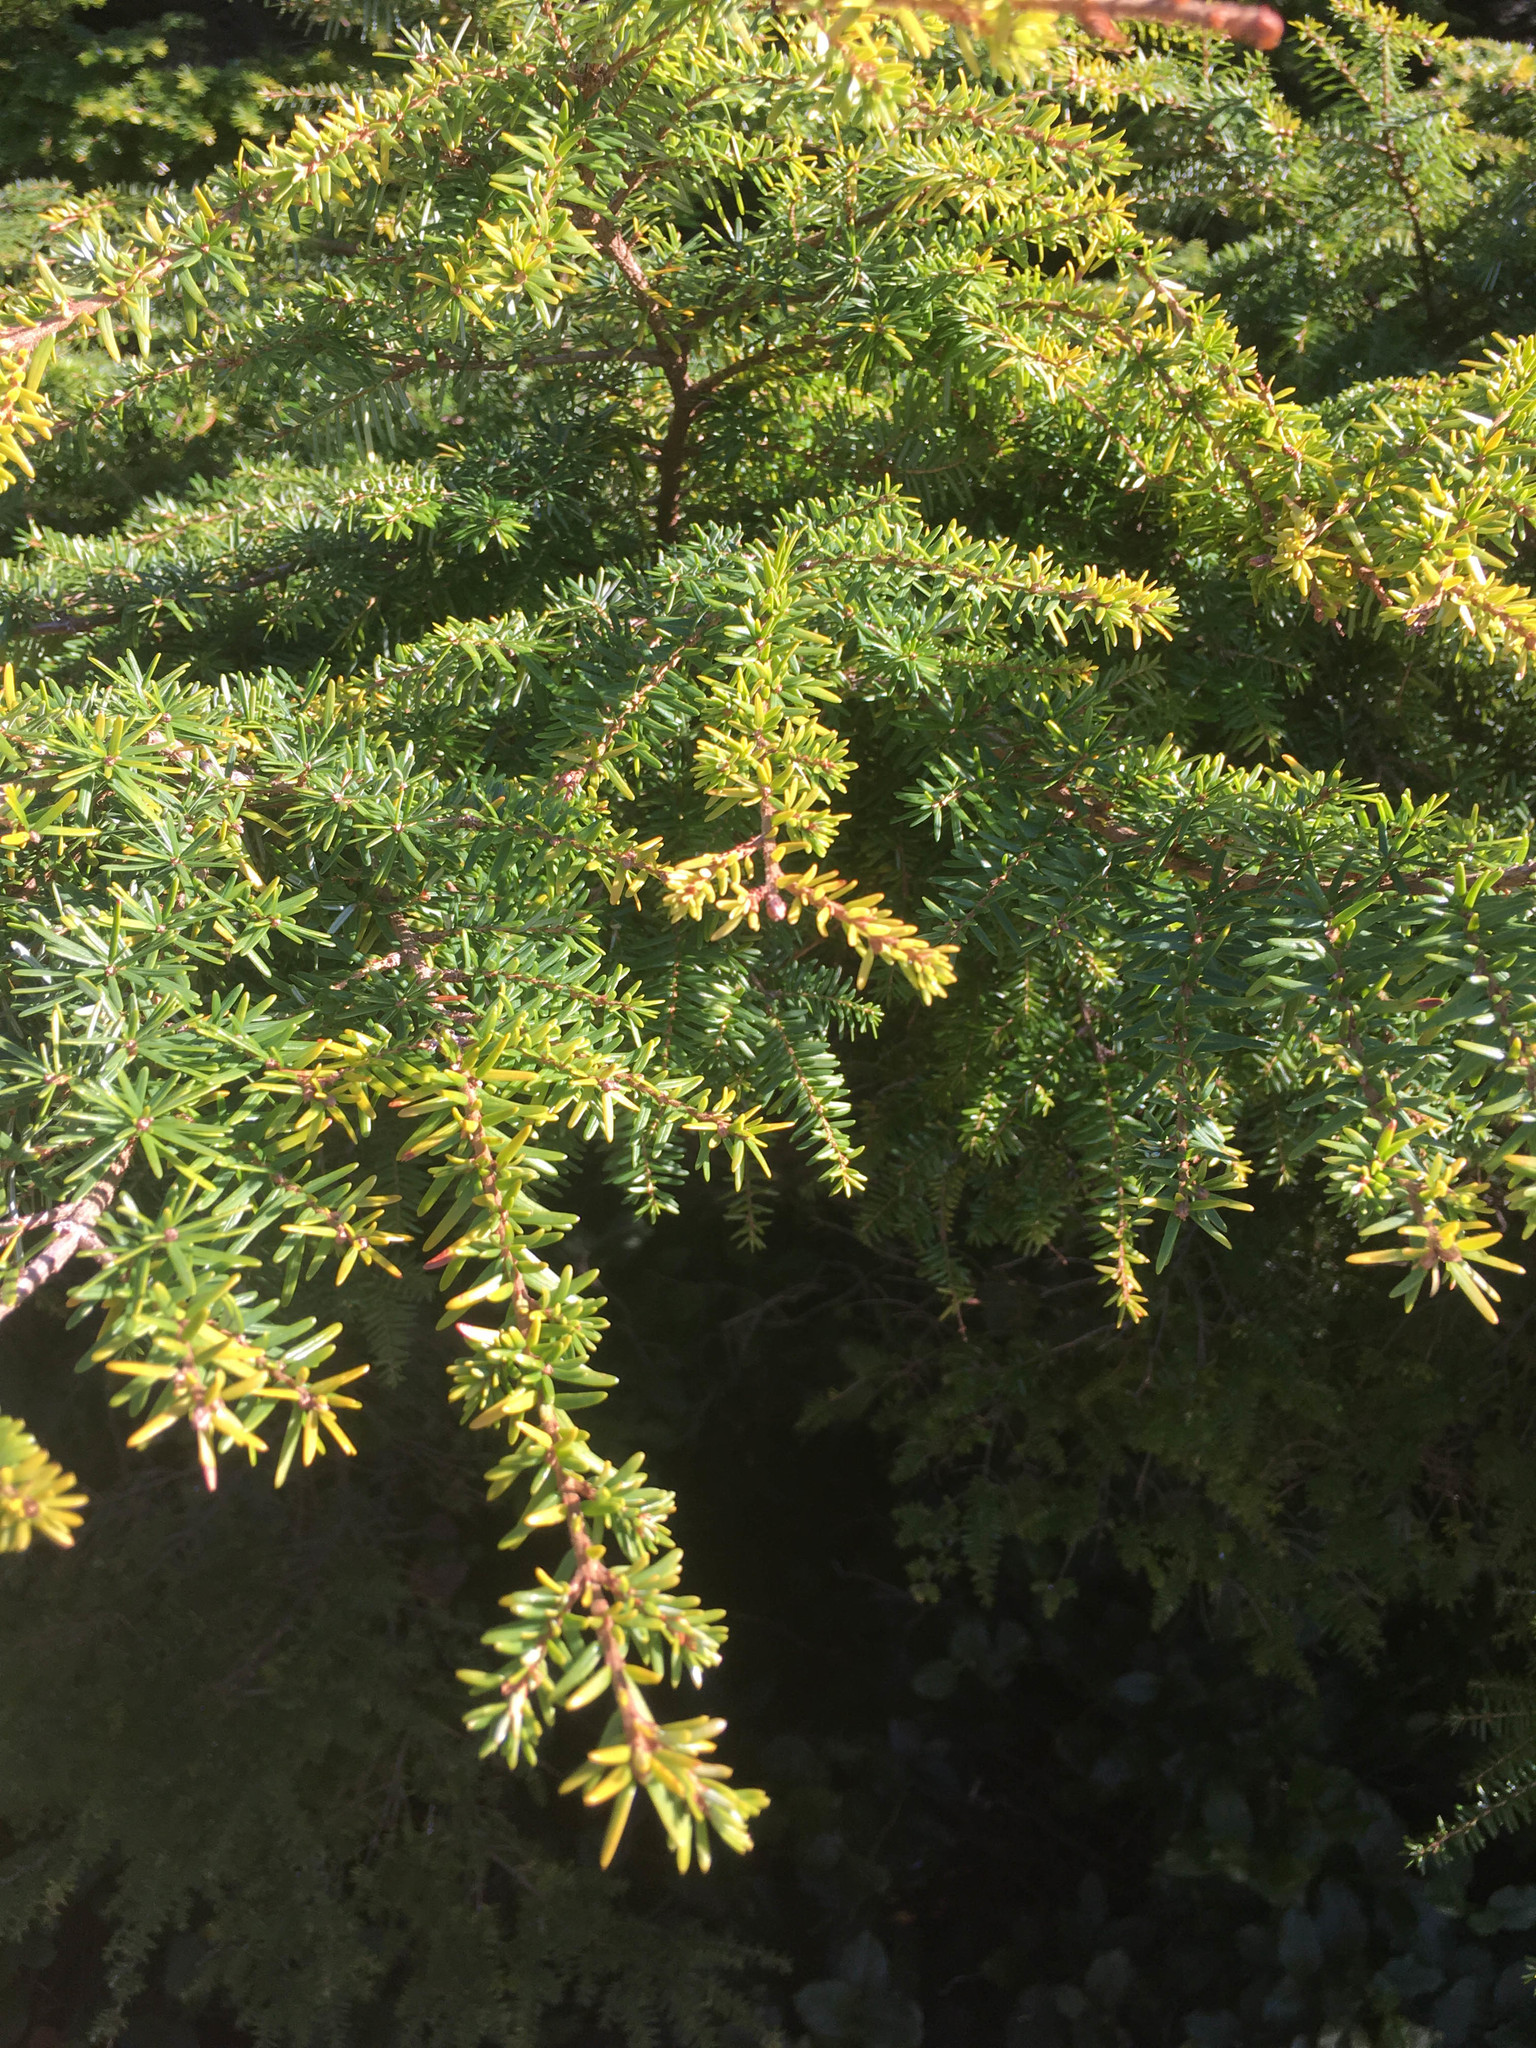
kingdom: Plantae
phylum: Tracheophyta
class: Pinopsida
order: Pinales
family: Pinaceae
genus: Tsuga
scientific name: Tsuga heterophylla
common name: Western hemlock
